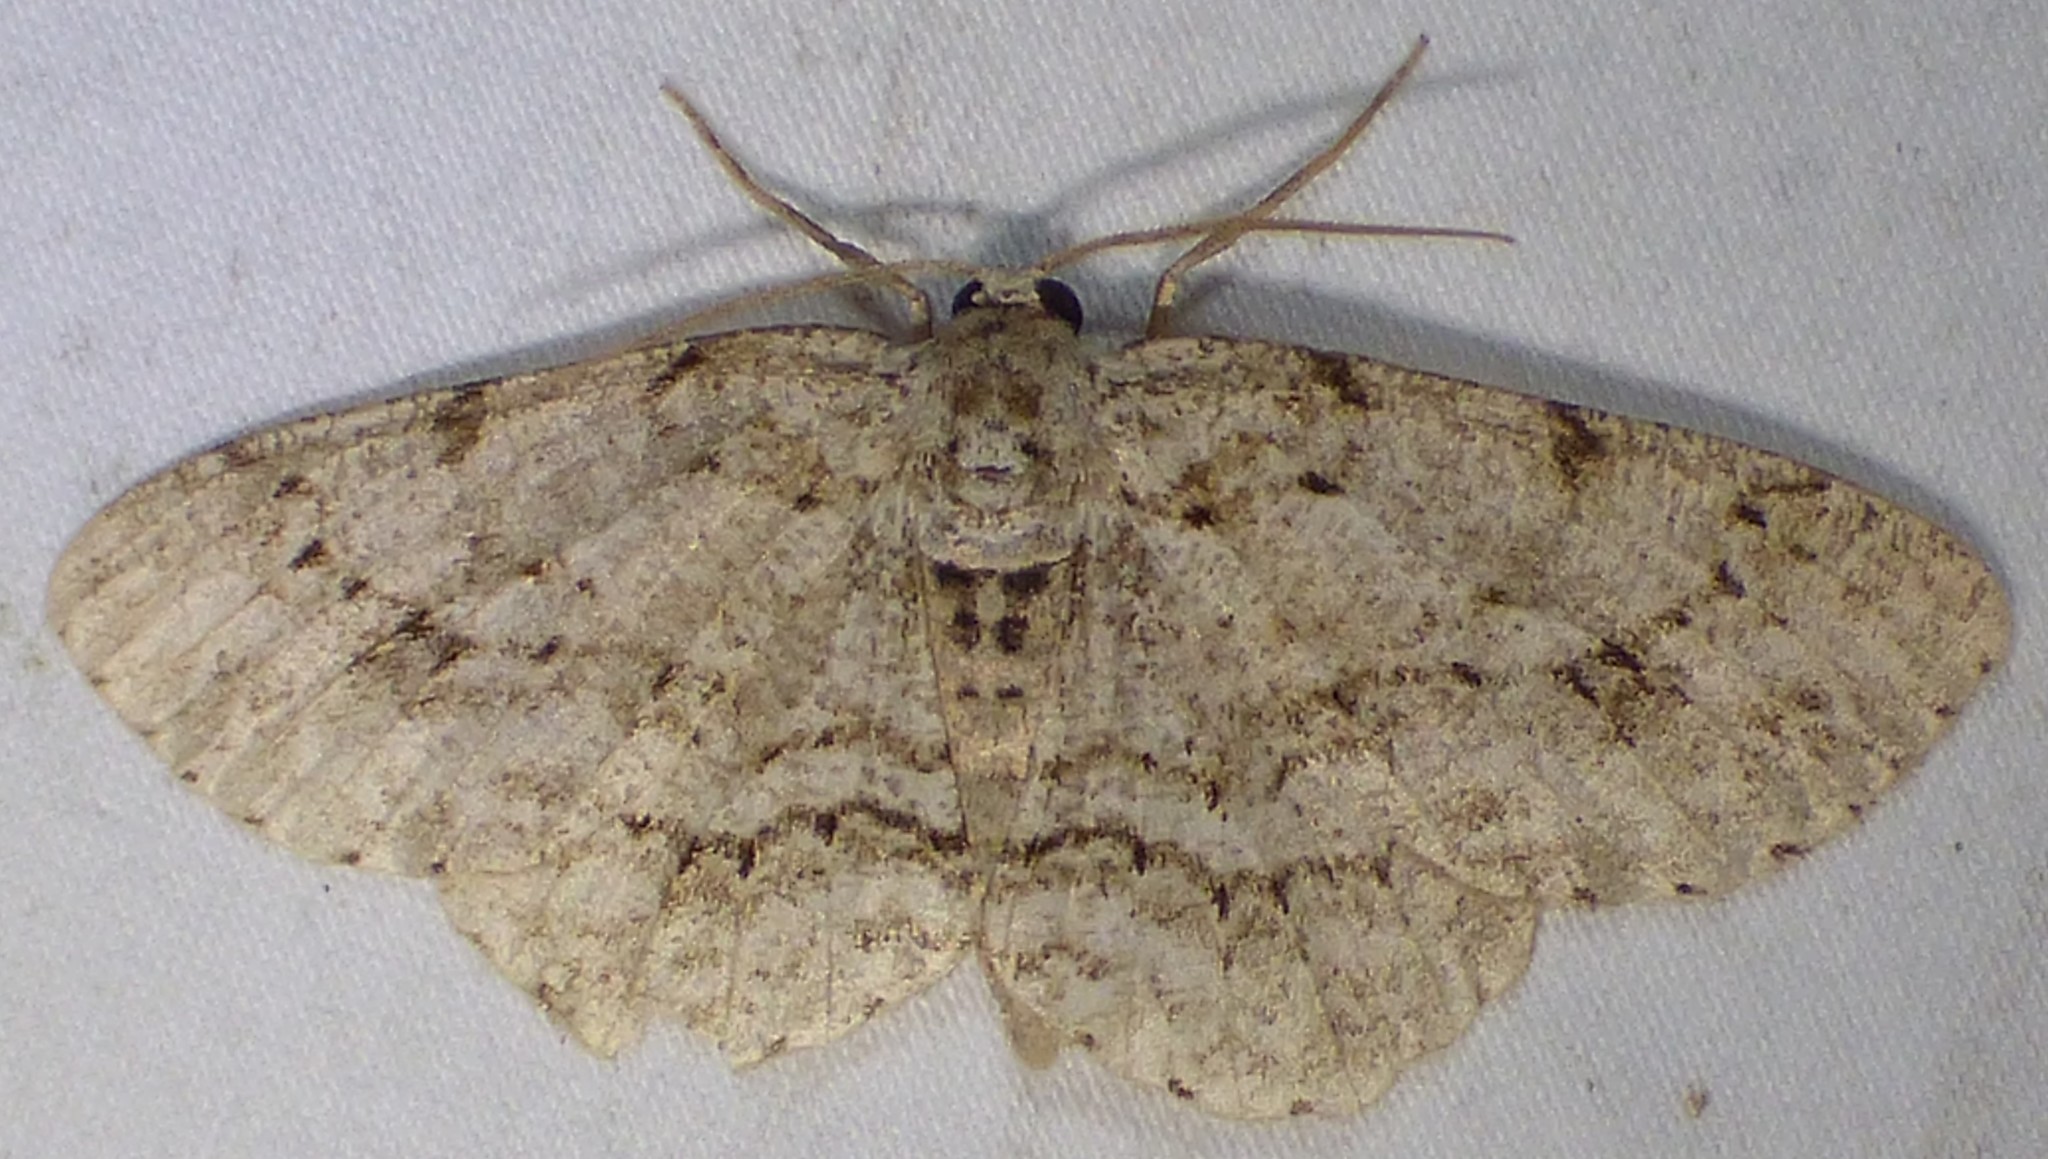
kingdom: Animalia
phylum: Arthropoda
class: Insecta
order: Lepidoptera
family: Geometridae
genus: Ectropis
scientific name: Ectropis crepuscularia
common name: Engrailed
